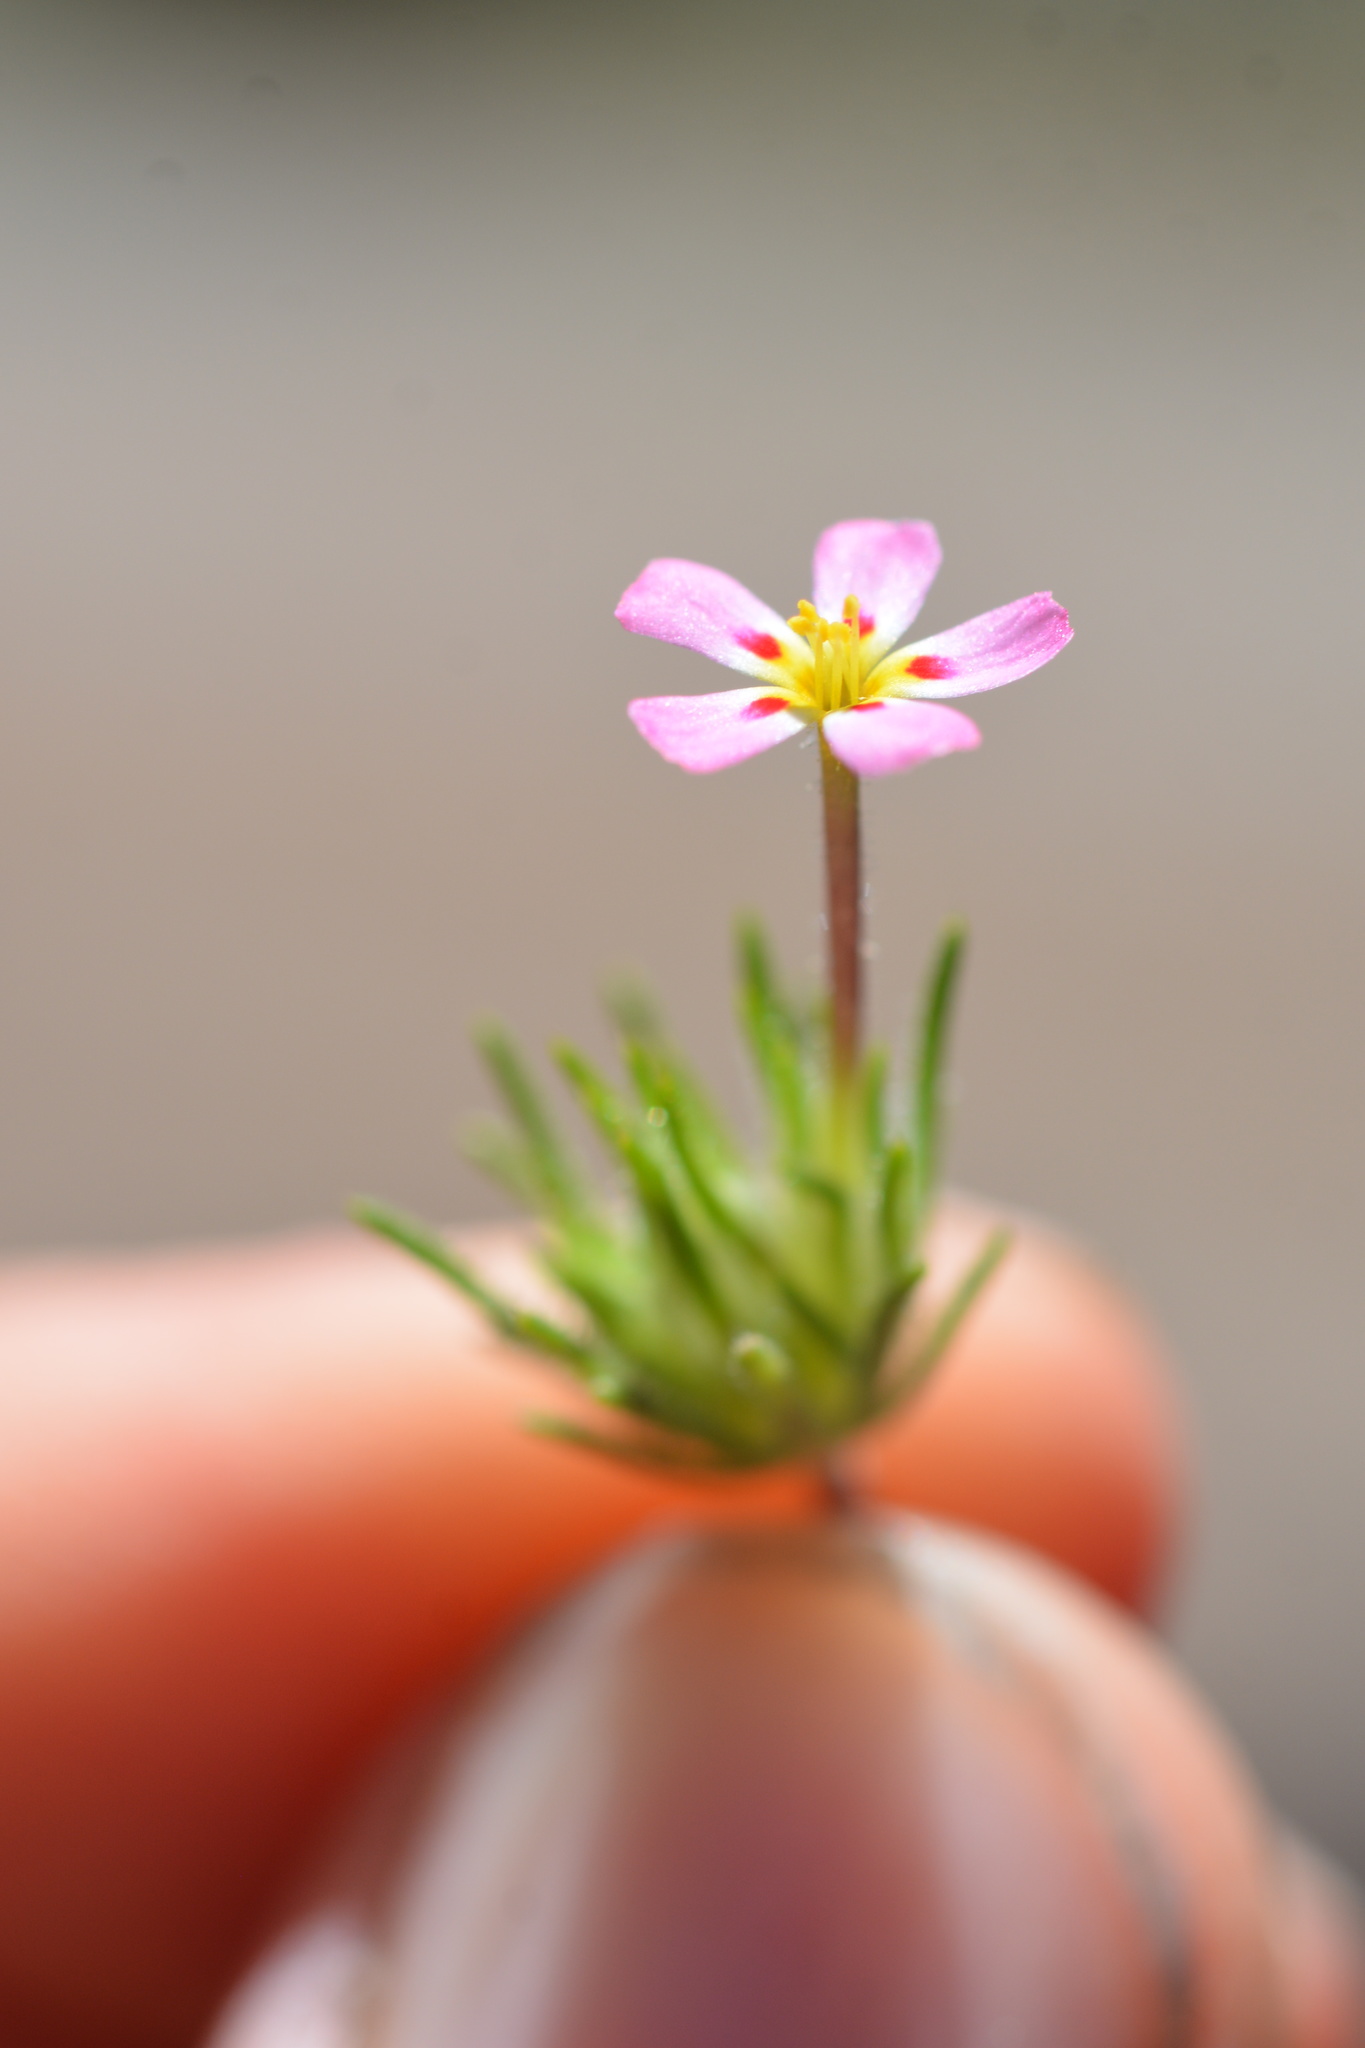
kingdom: Plantae
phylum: Tracheophyta
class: Magnoliopsida
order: Ericales
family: Polemoniaceae
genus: Leptosiphon
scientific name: Leptosiphon ciliatus
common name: Whiskerbrush
